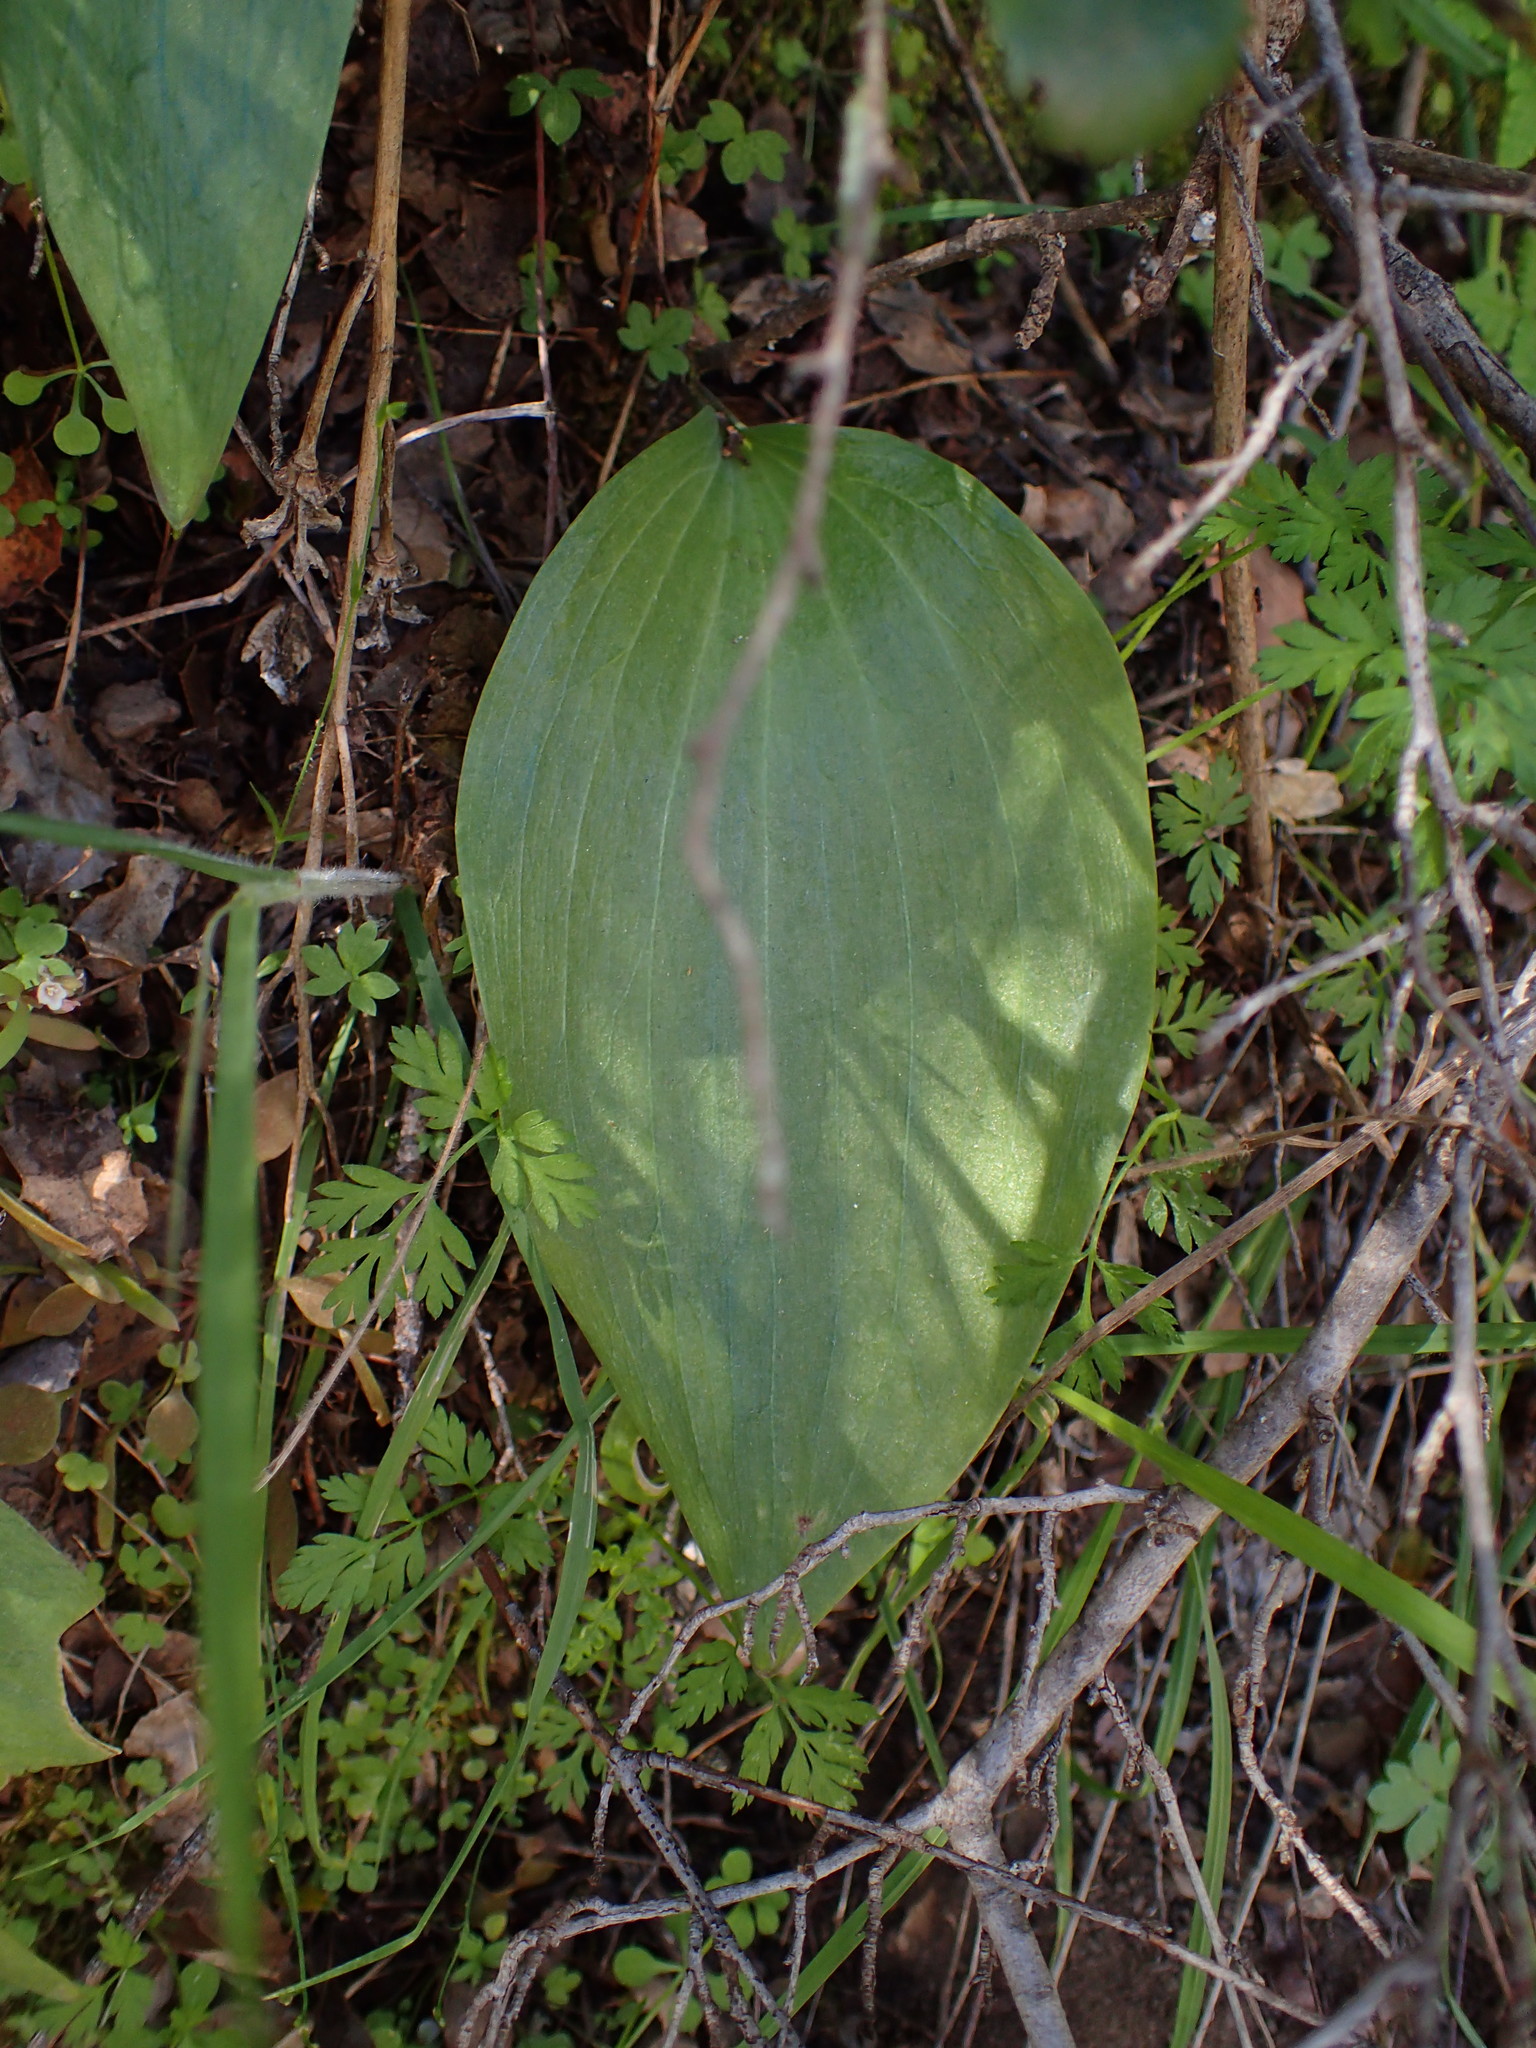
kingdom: Plantae
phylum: Tracheophyta
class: Liliopsida
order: Liliales
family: Liliaceae
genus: Fritillaria
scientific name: Fritillaria ojaiensis
